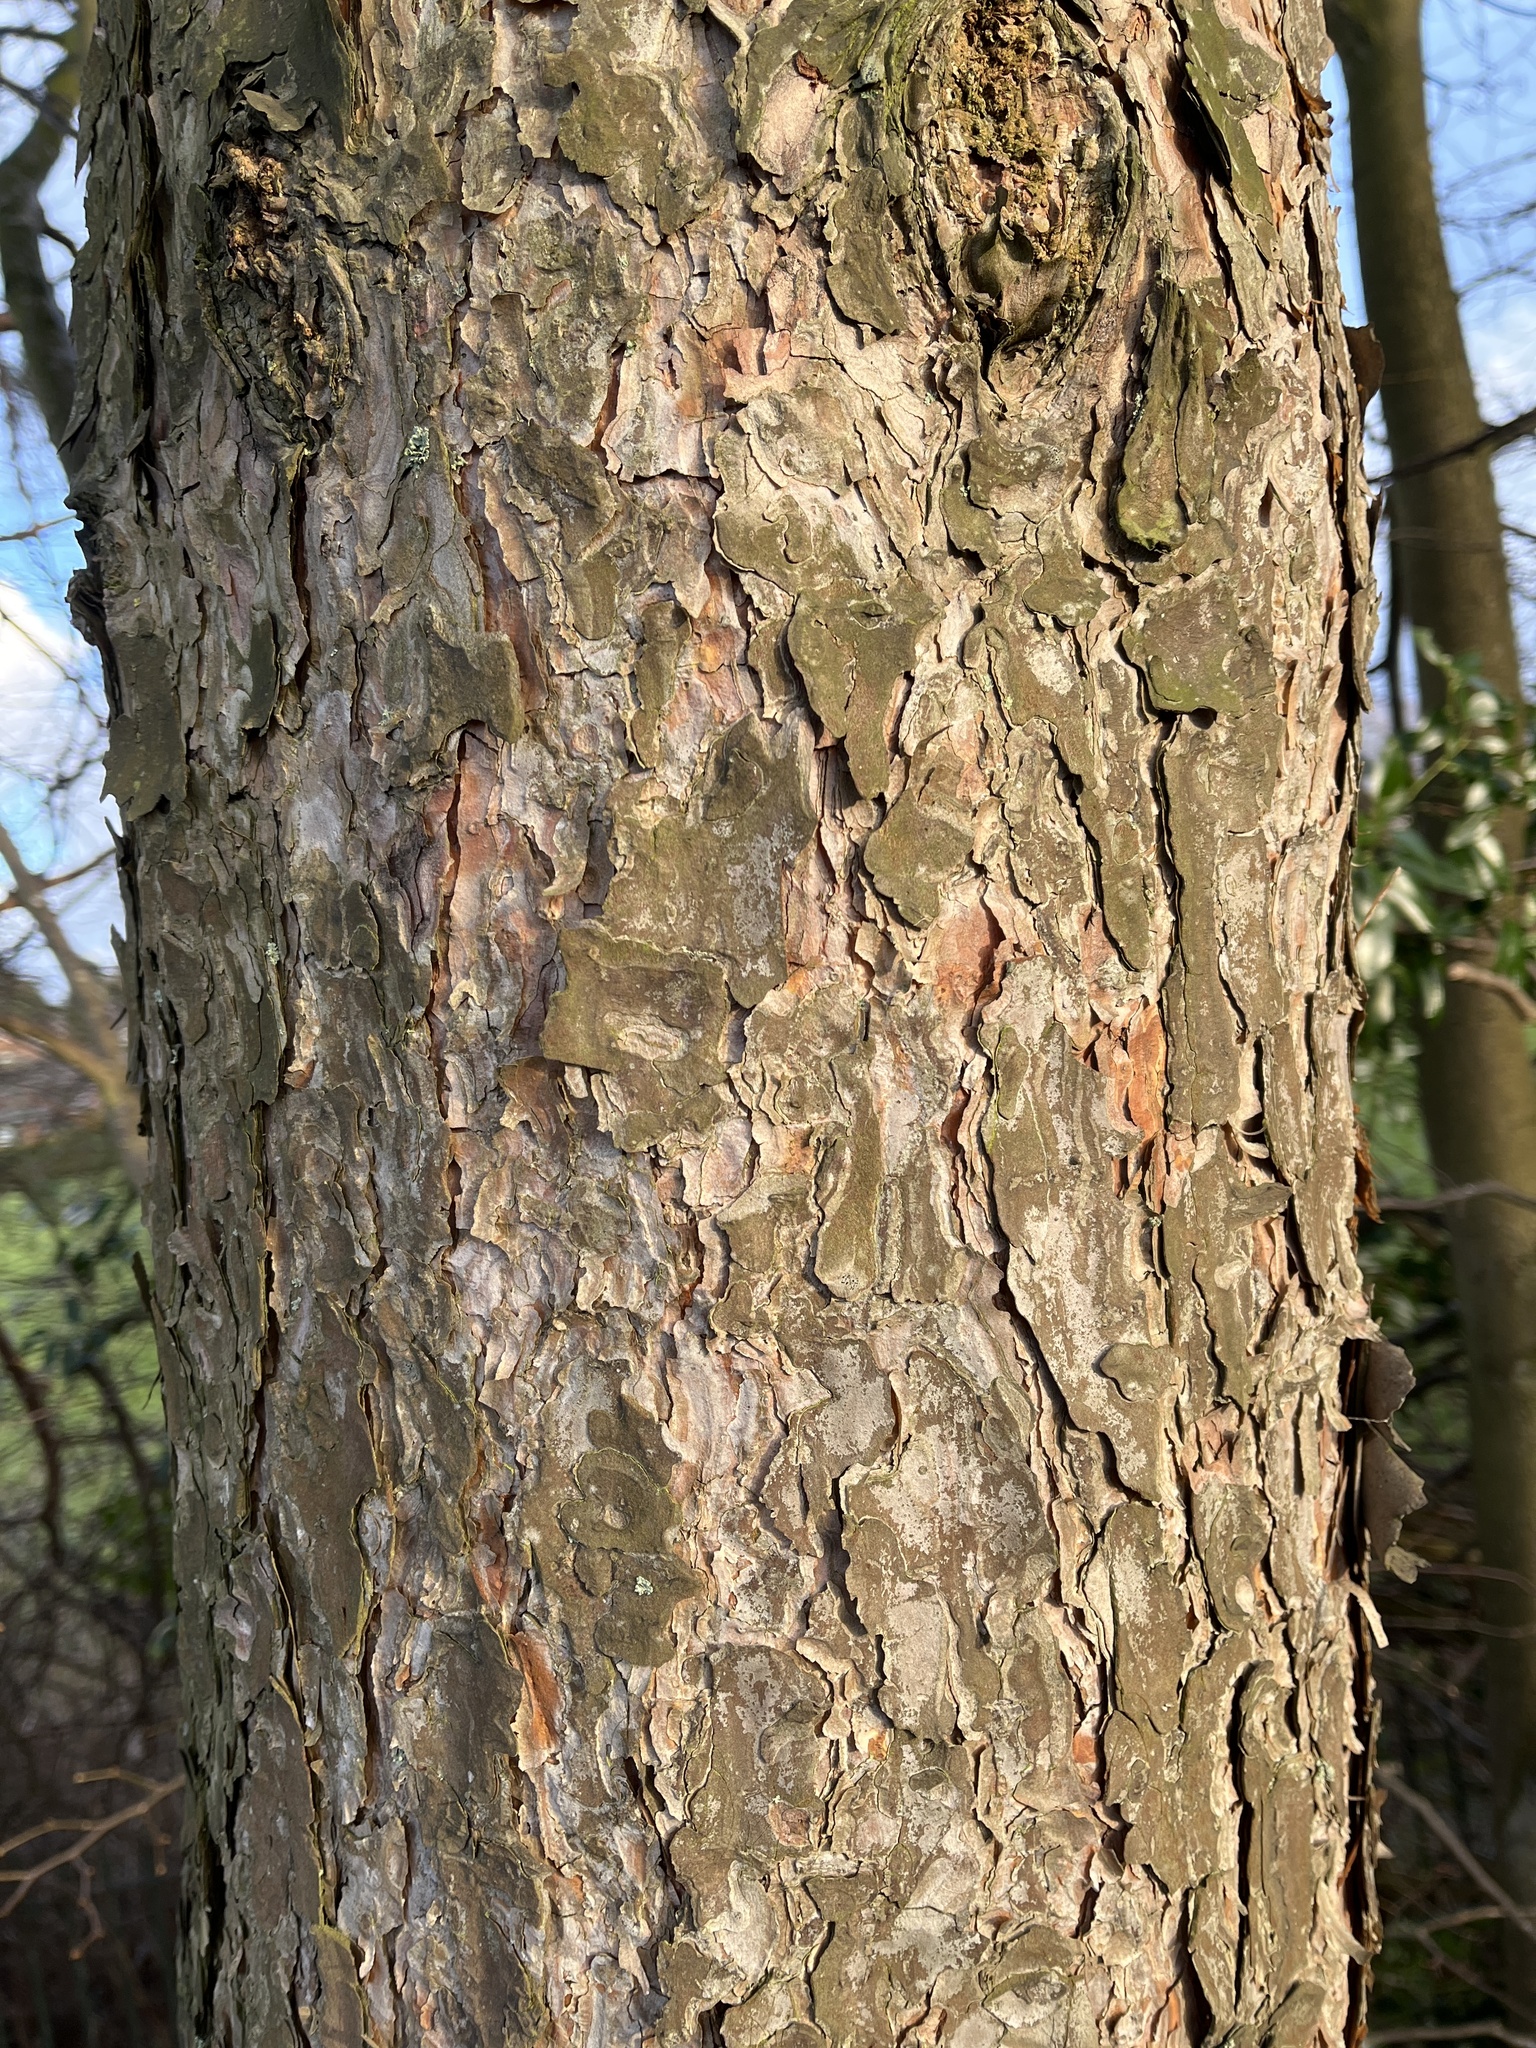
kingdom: Plantae
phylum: Tracheophyta
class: Pinopsida
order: Pinales
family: Pinaceae
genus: Pinus
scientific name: Pinus sylvestris
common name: Scots pine
